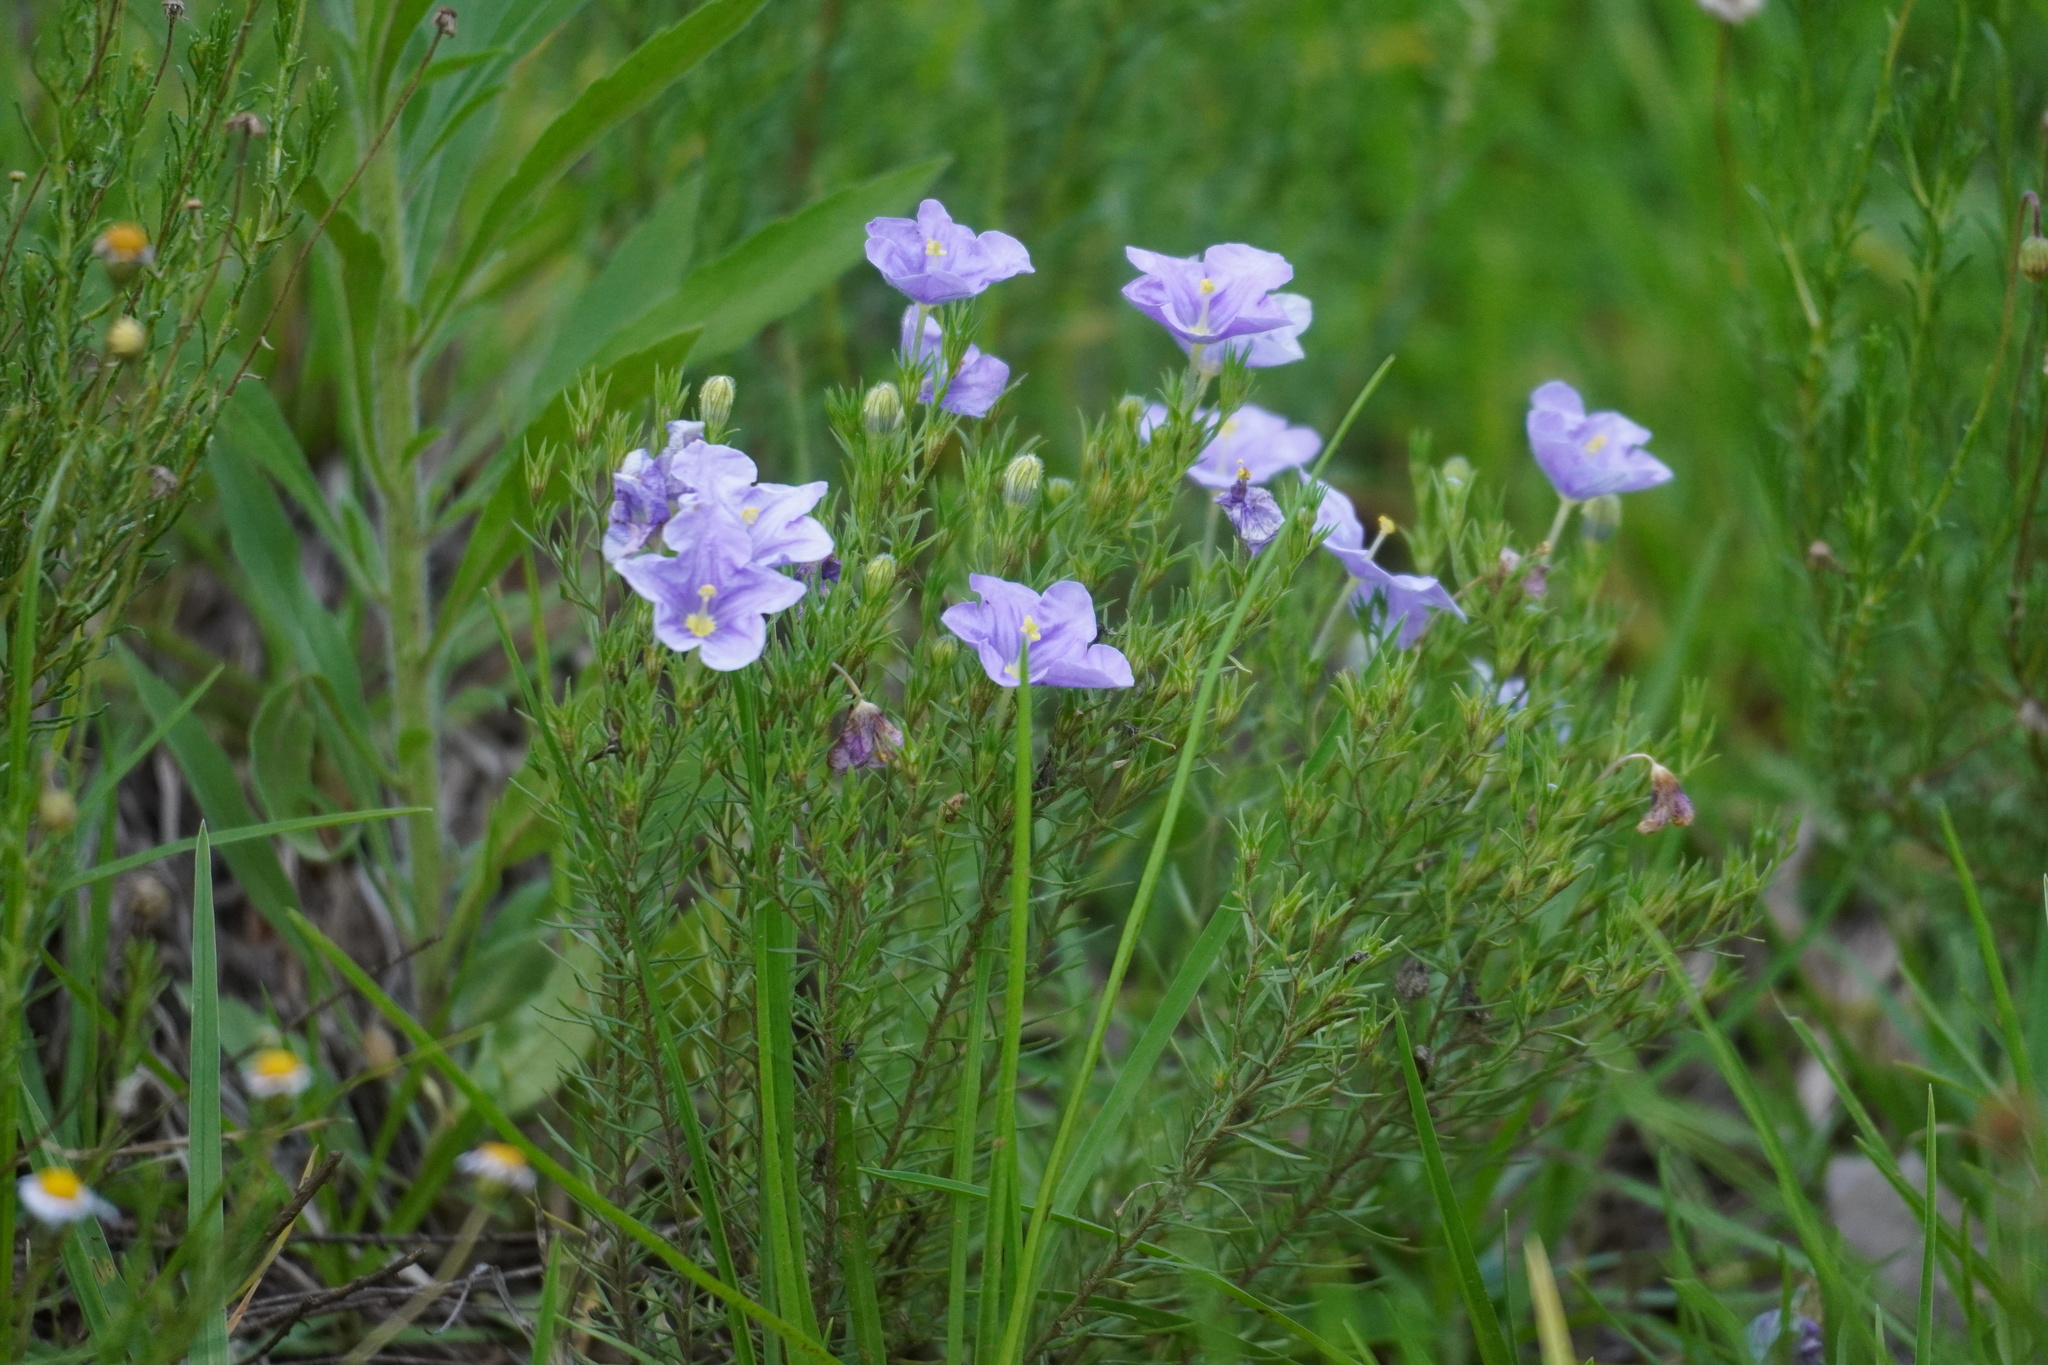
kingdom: Plantae
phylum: Tracheophyta
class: Magnoliopsida
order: Solanales
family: Solanaceae
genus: Nierembergia
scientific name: Nierembergia linariifolia
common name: Dwarf cupflower
